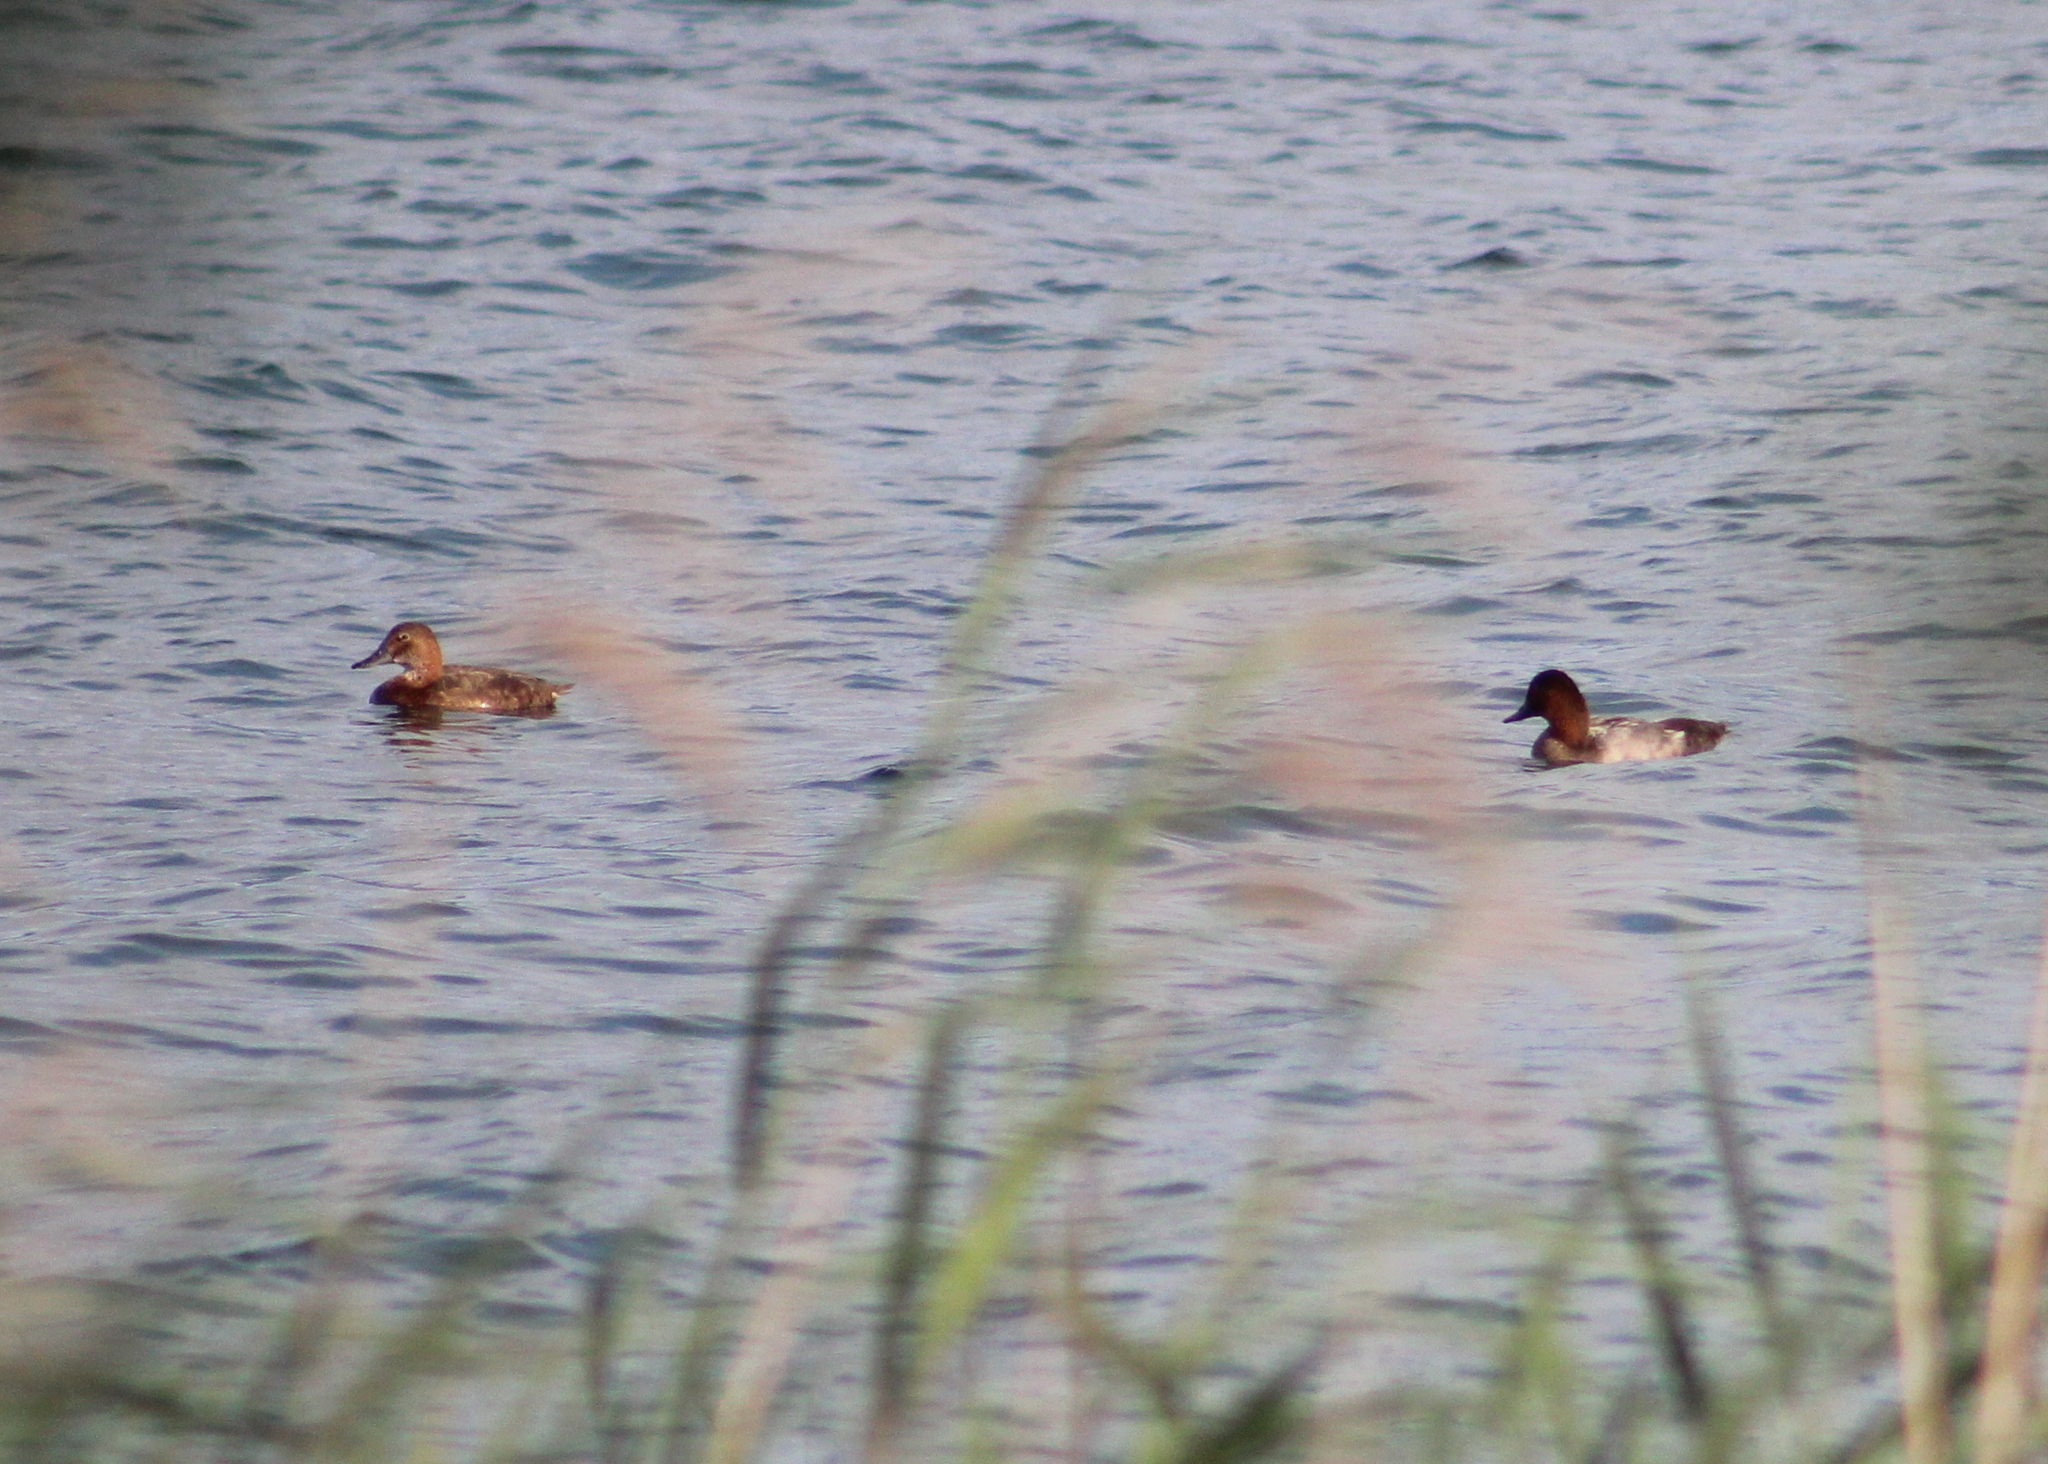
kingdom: Animalia
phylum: Chordata
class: Aves
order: Anseriformes
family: Anatidae
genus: Aythya
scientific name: Aythya ferina
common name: Common pochard
